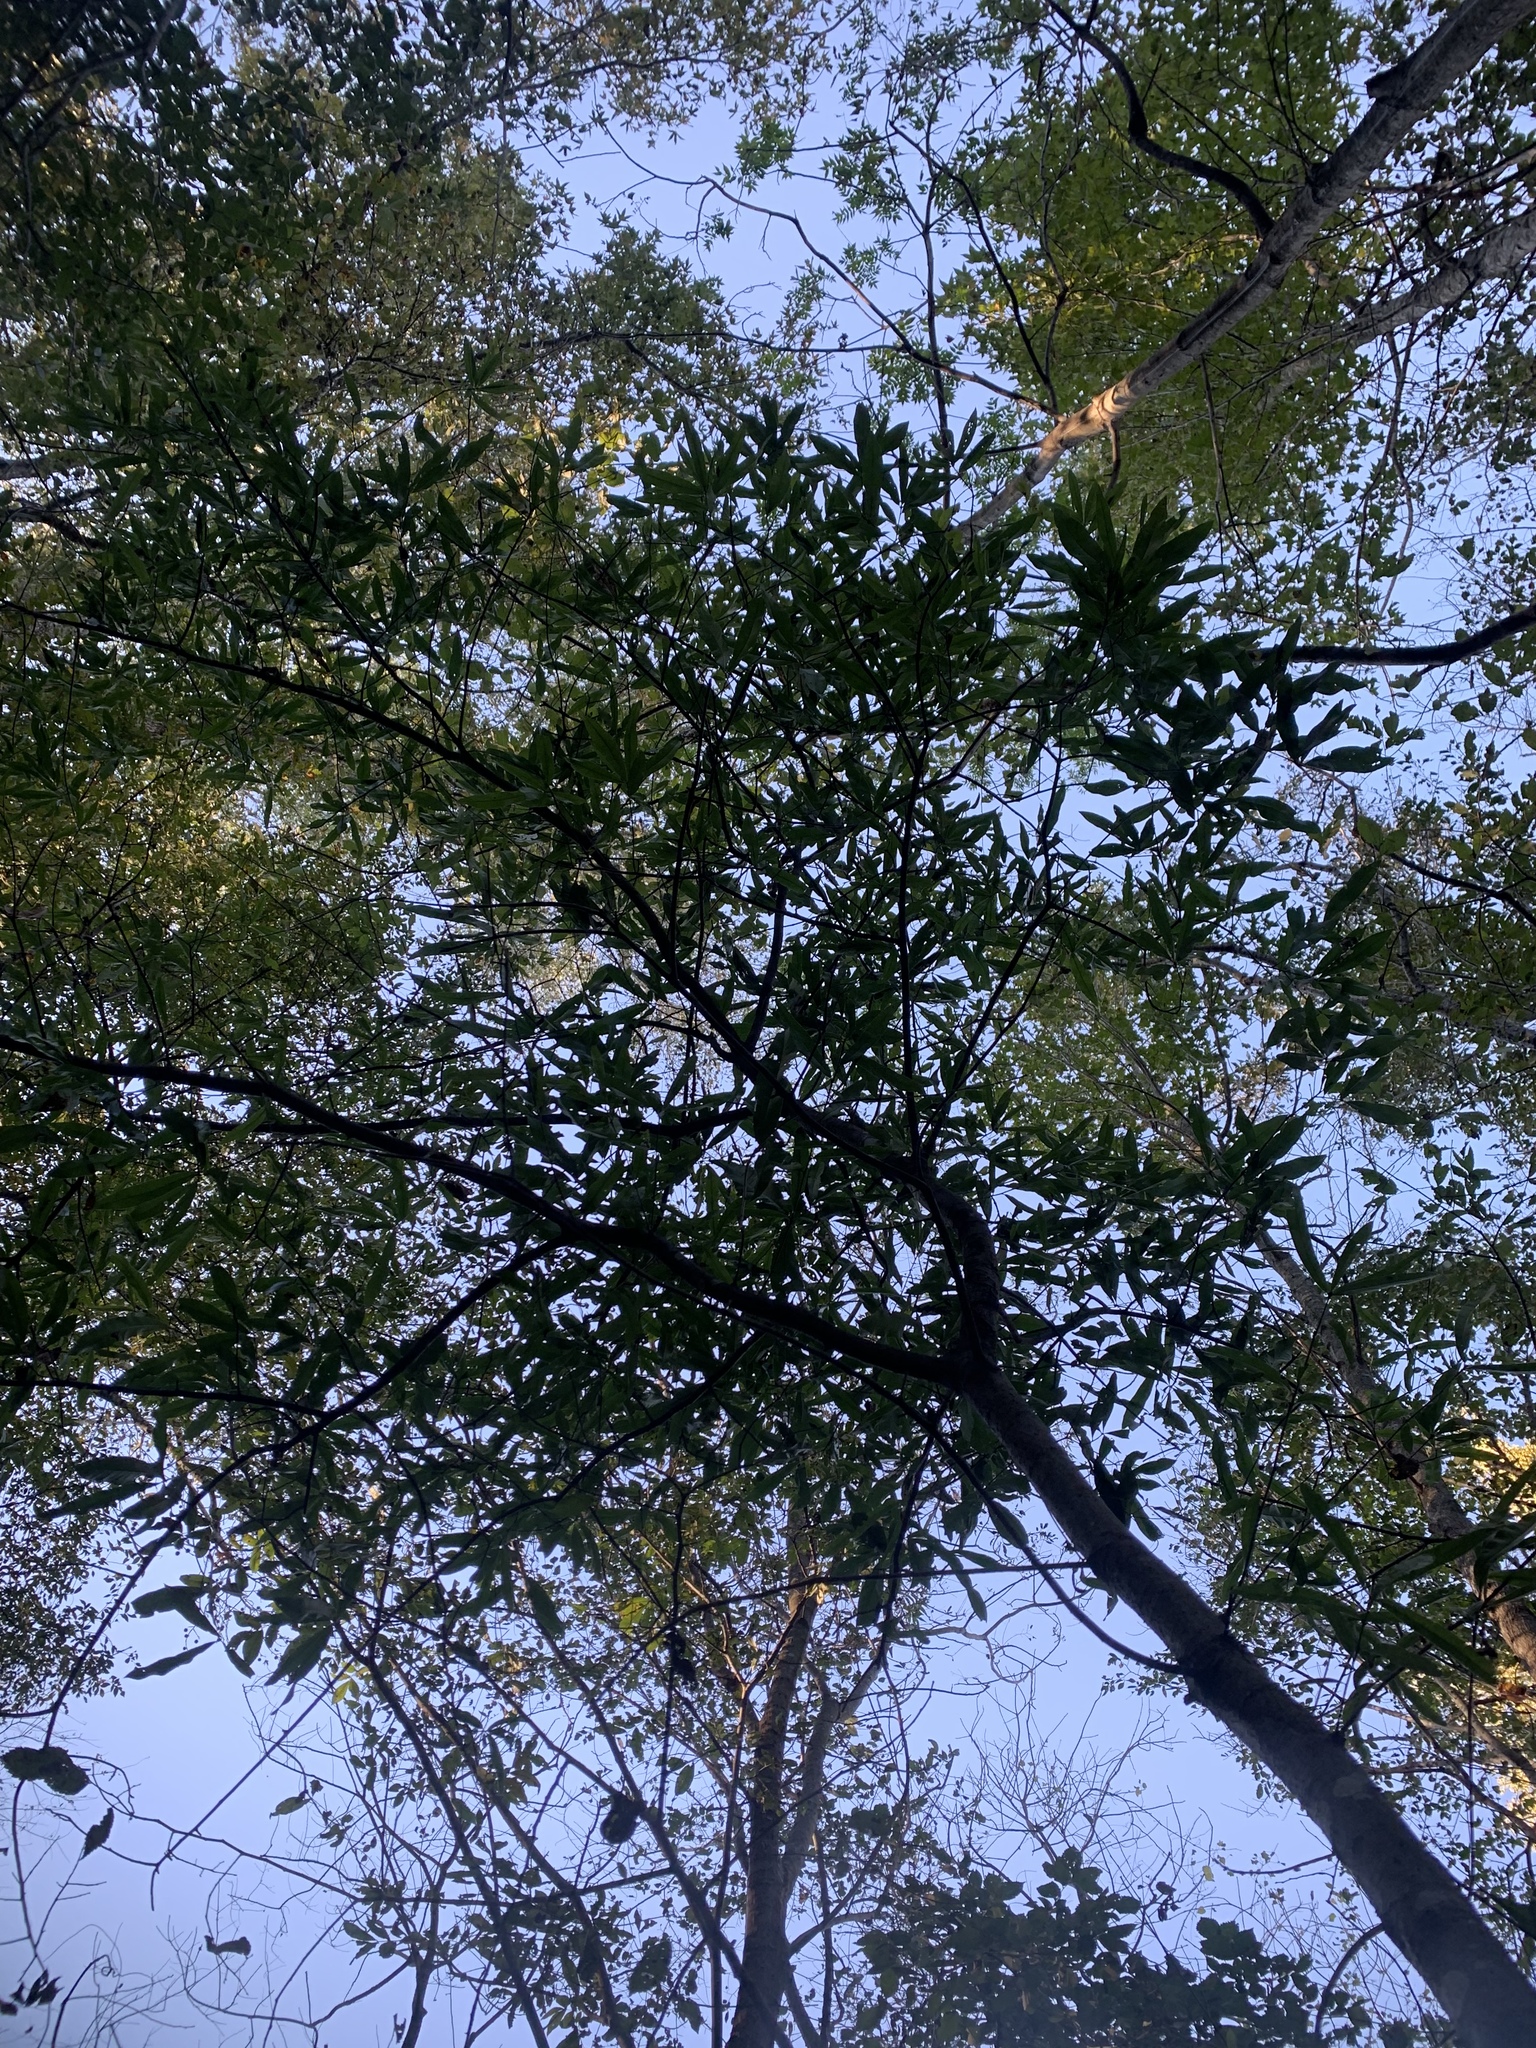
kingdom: Plantae
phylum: Tracheophyta
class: Magnoliopsida
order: Fagales
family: Fagaceae
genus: Quercus
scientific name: Quercus phellos
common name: Willow oak
